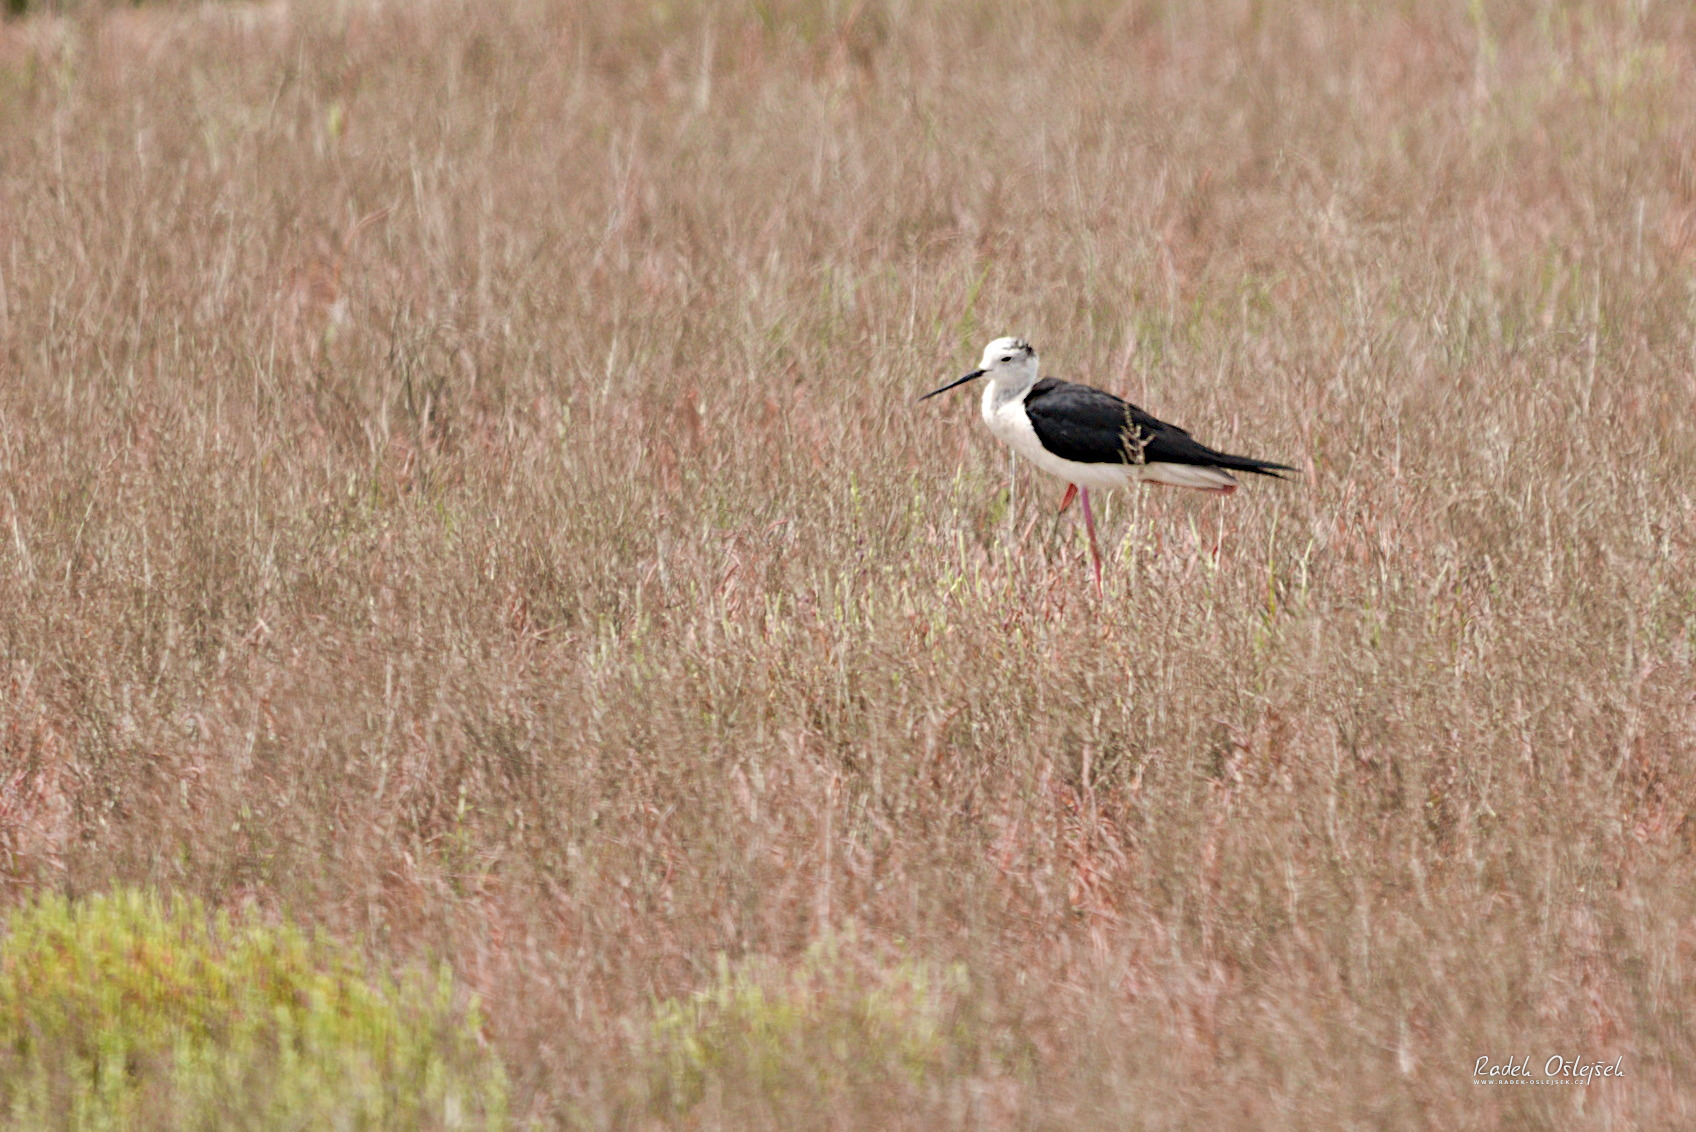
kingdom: Animalia
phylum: Chordata
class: Aves
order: Charadriiformes
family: Recurvirostridae
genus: Himantopus
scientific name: Himantopus himantopus
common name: Black-winged stilt
